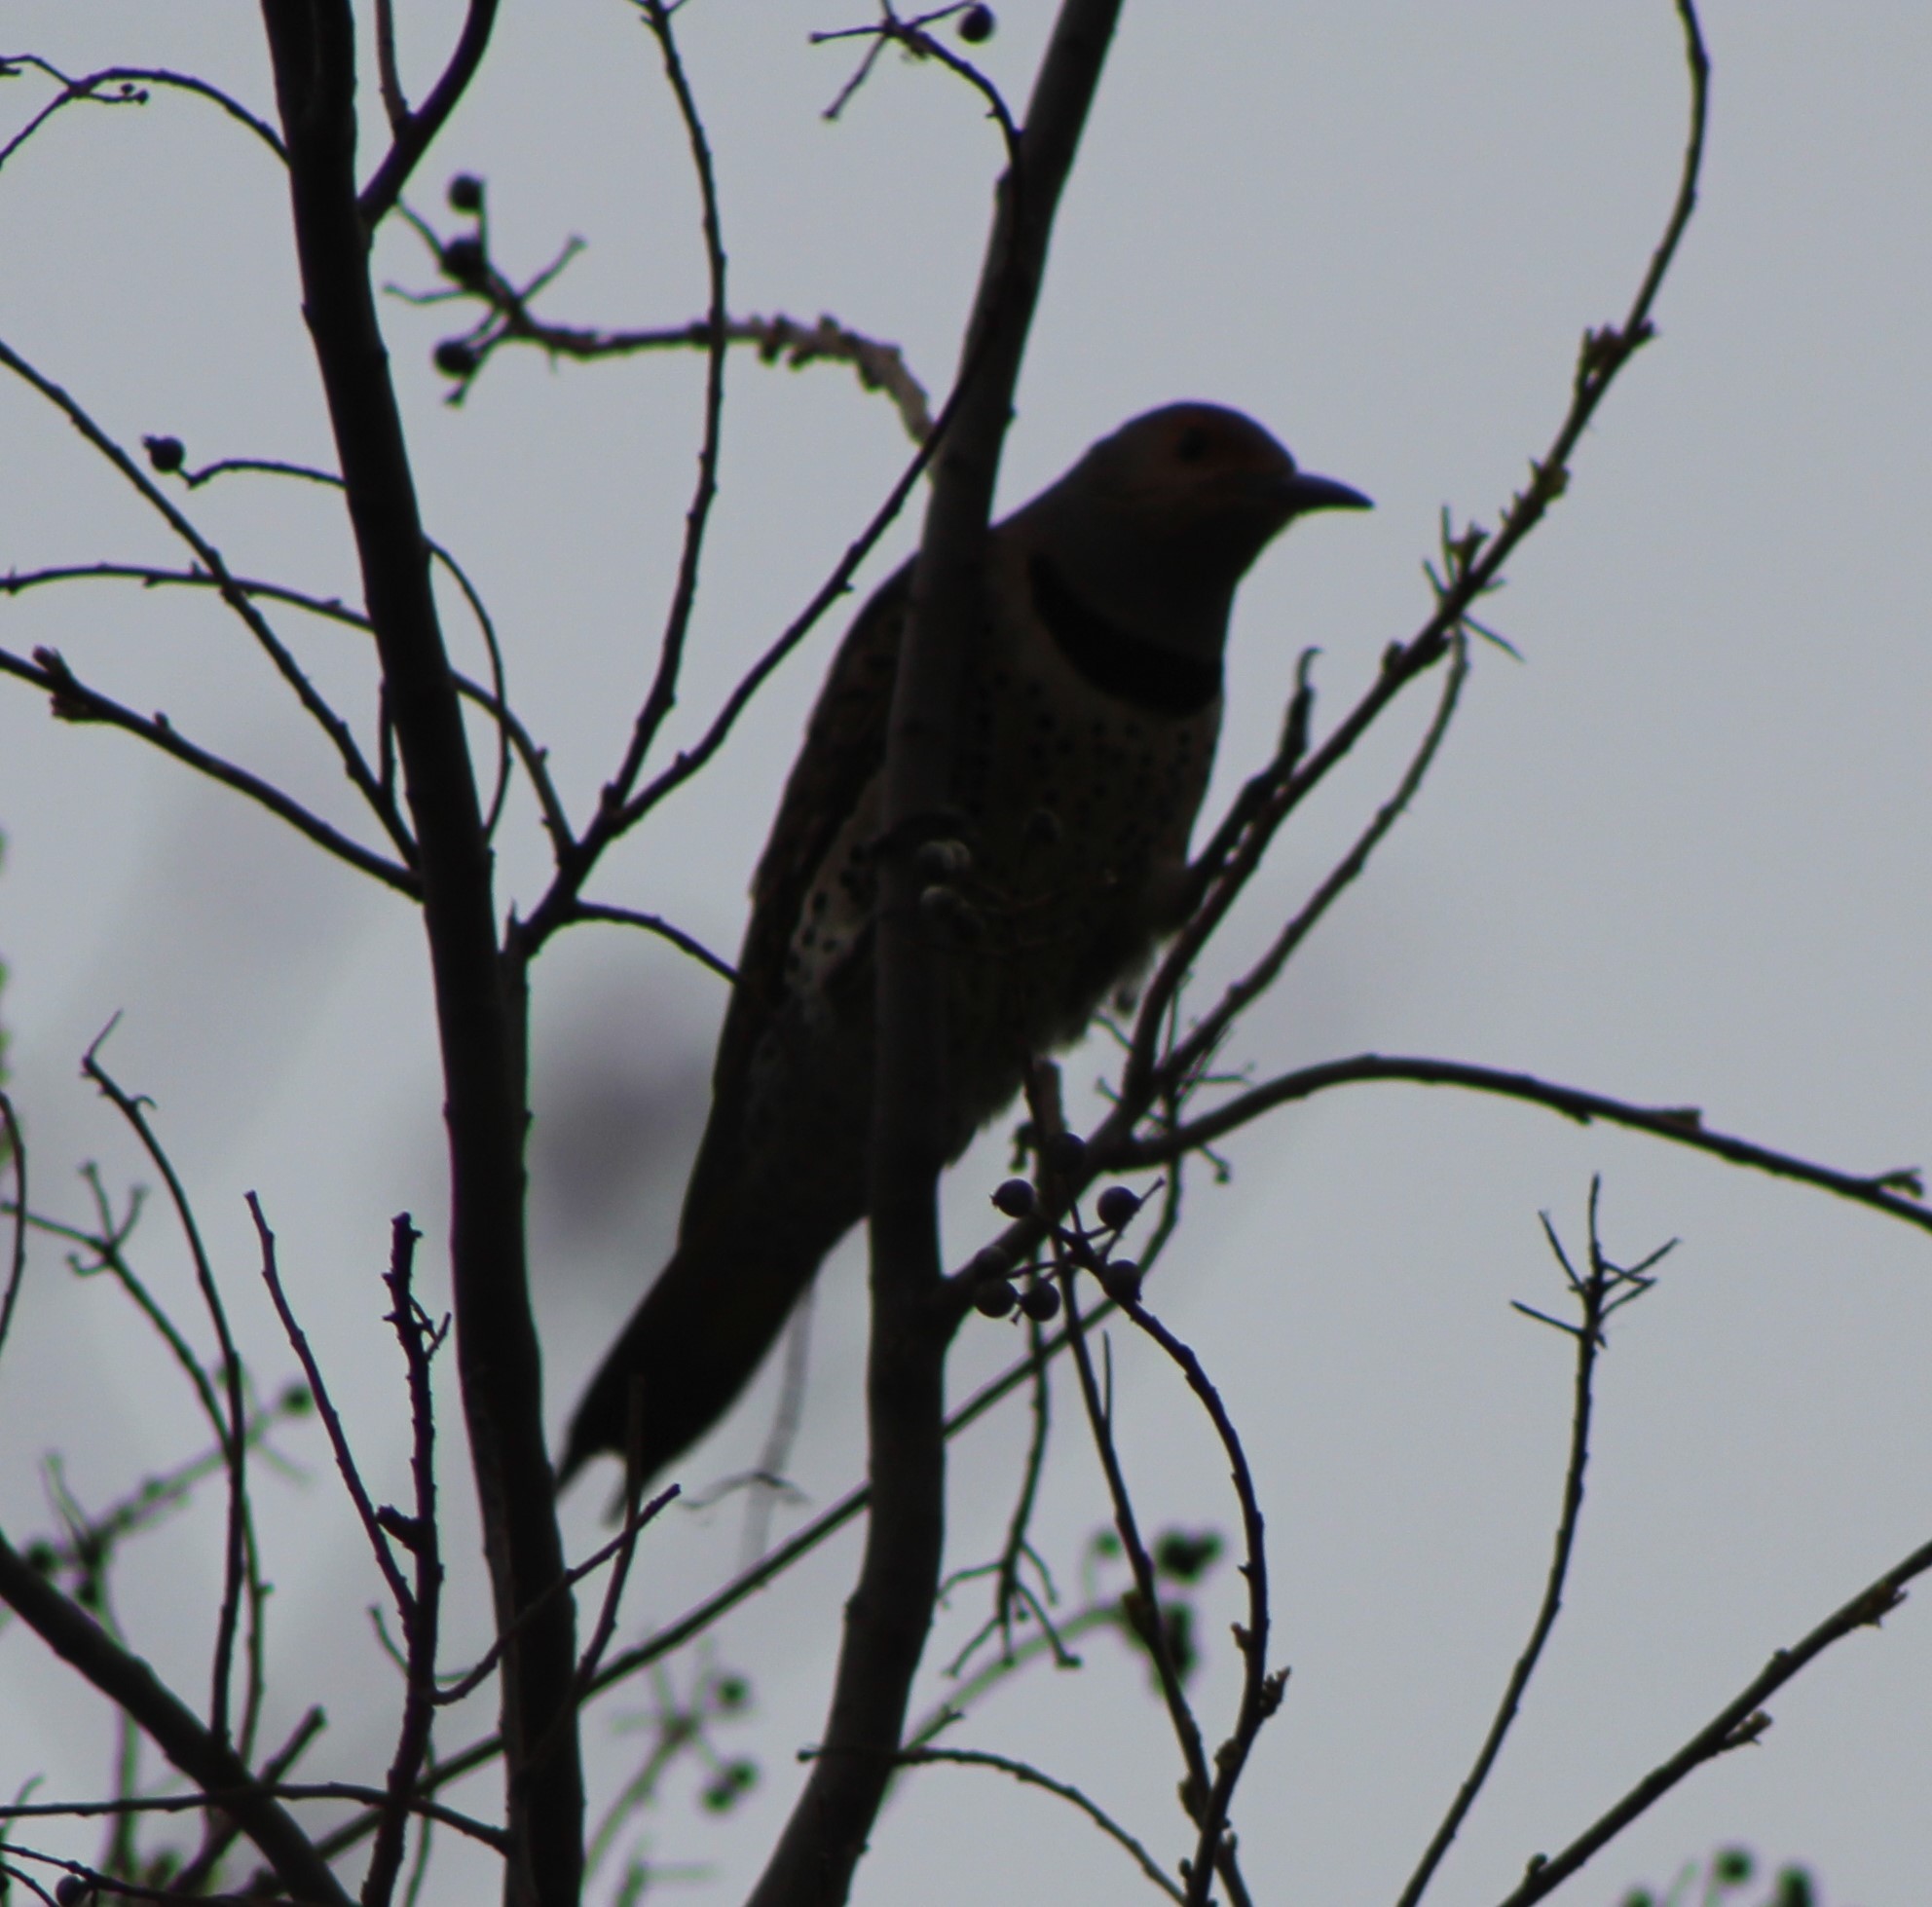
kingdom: Animalia
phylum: Chordata
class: Aves
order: Piciformes
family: Picidae
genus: Colaptes
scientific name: Colaptes auratus
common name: Northern flicker
